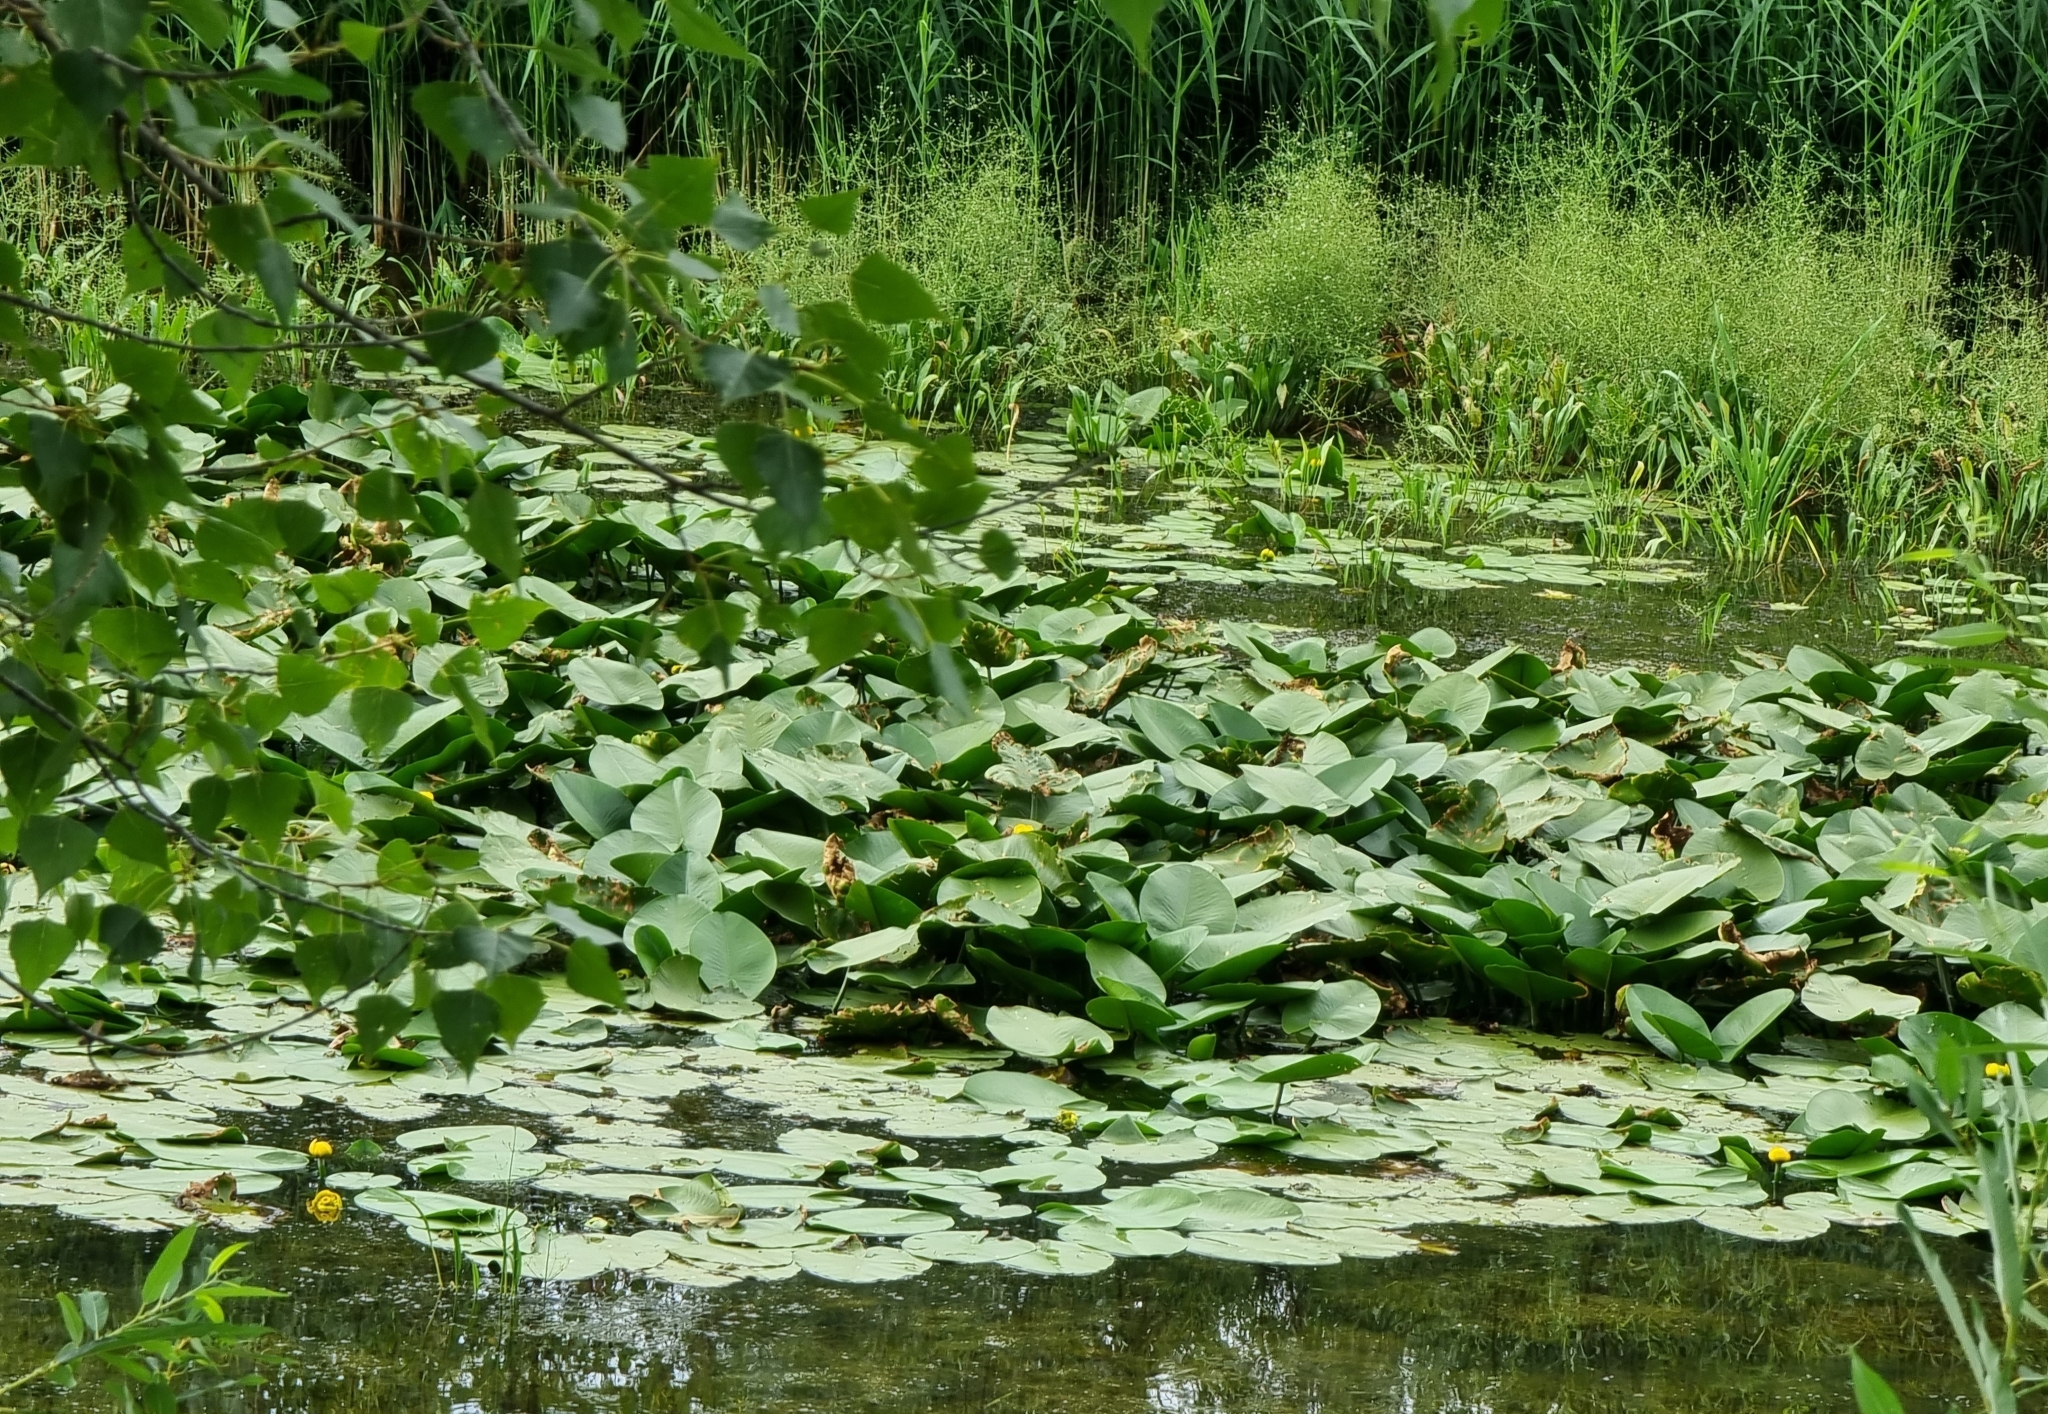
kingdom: Plantae
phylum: Tracheophyta
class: Magnoliopsida
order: Nymphaeales
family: Nymphaeaceae
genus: Nuphar
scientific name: Nuphar lutea
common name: Yellow water-lily
